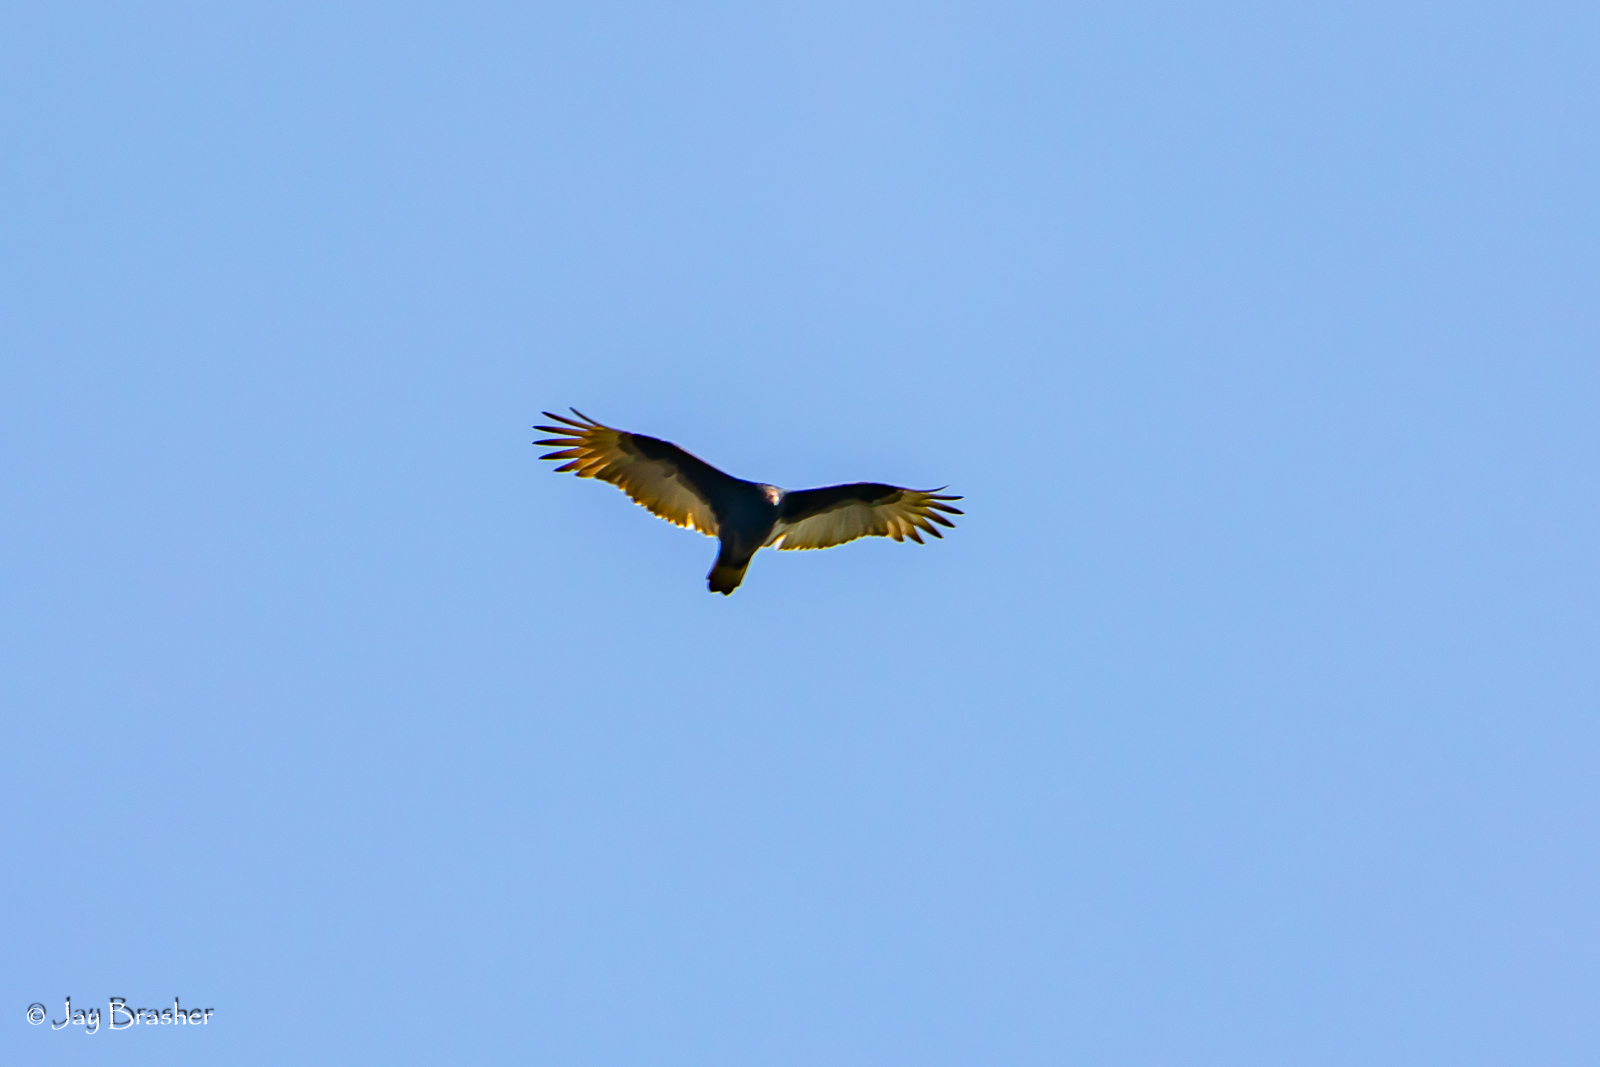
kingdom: Animalia
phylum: Chordata
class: Aves
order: Accipitriformes
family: Cathartidae
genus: Cathartes
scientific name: Cathartes aura
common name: Turkey vulture
